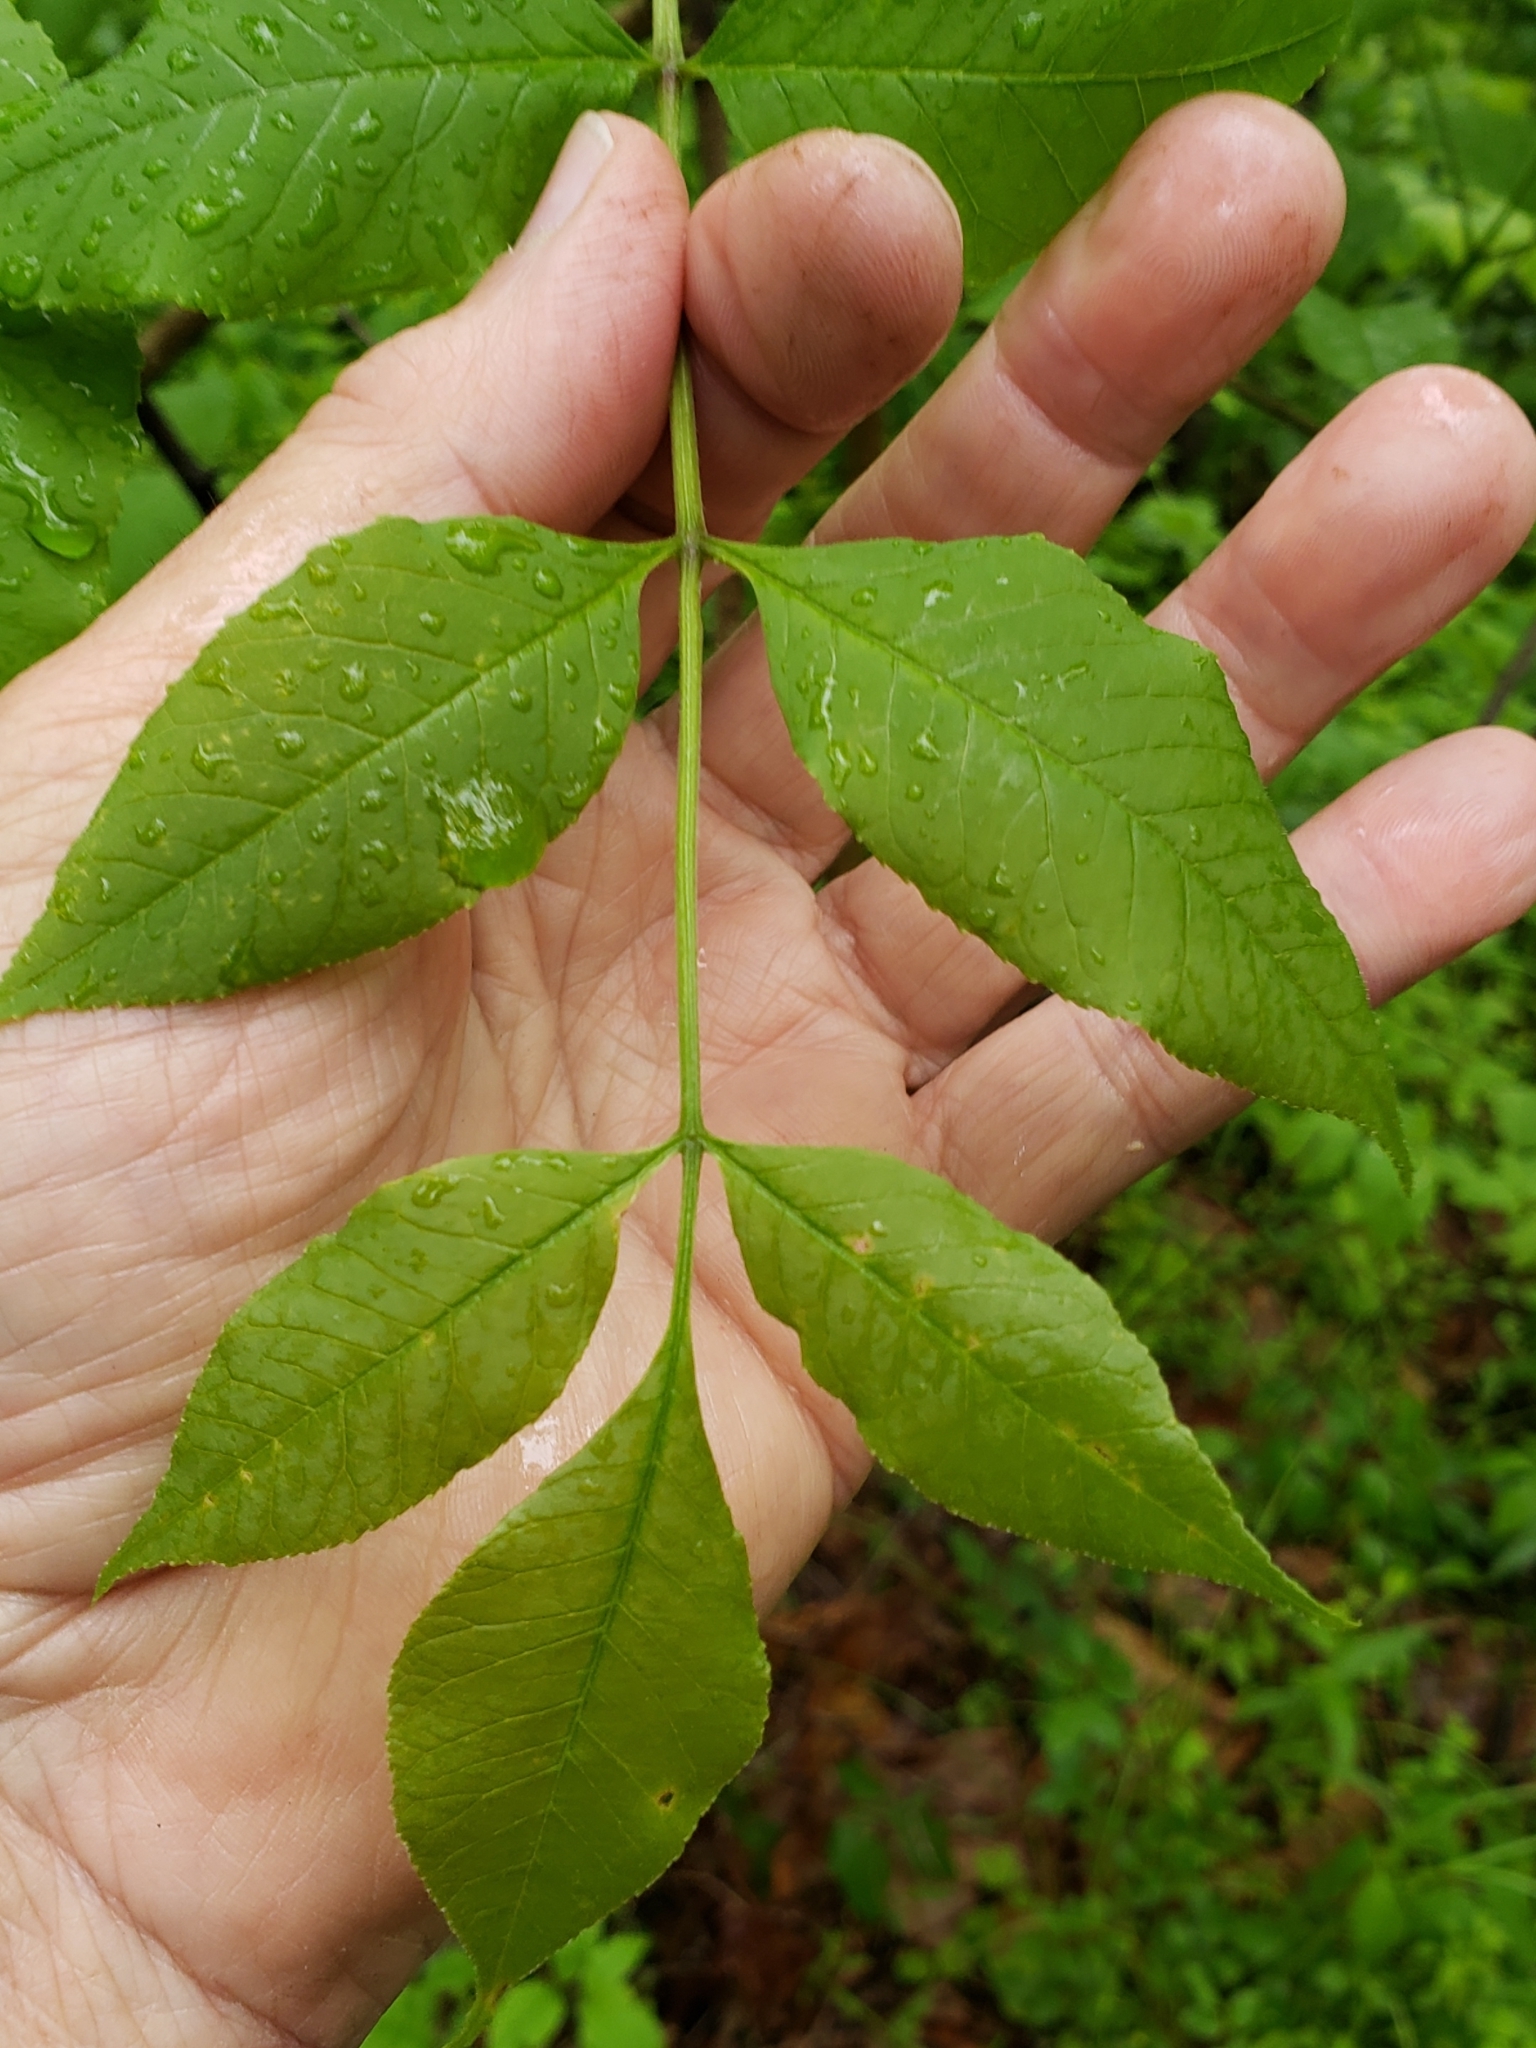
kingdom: Fungi
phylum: Basidiomycota
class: Pucciniomycetes
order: Pucciniales
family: Pucciniaceae
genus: Puccinia
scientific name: Puccinia sparganioidis
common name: Ash rust
